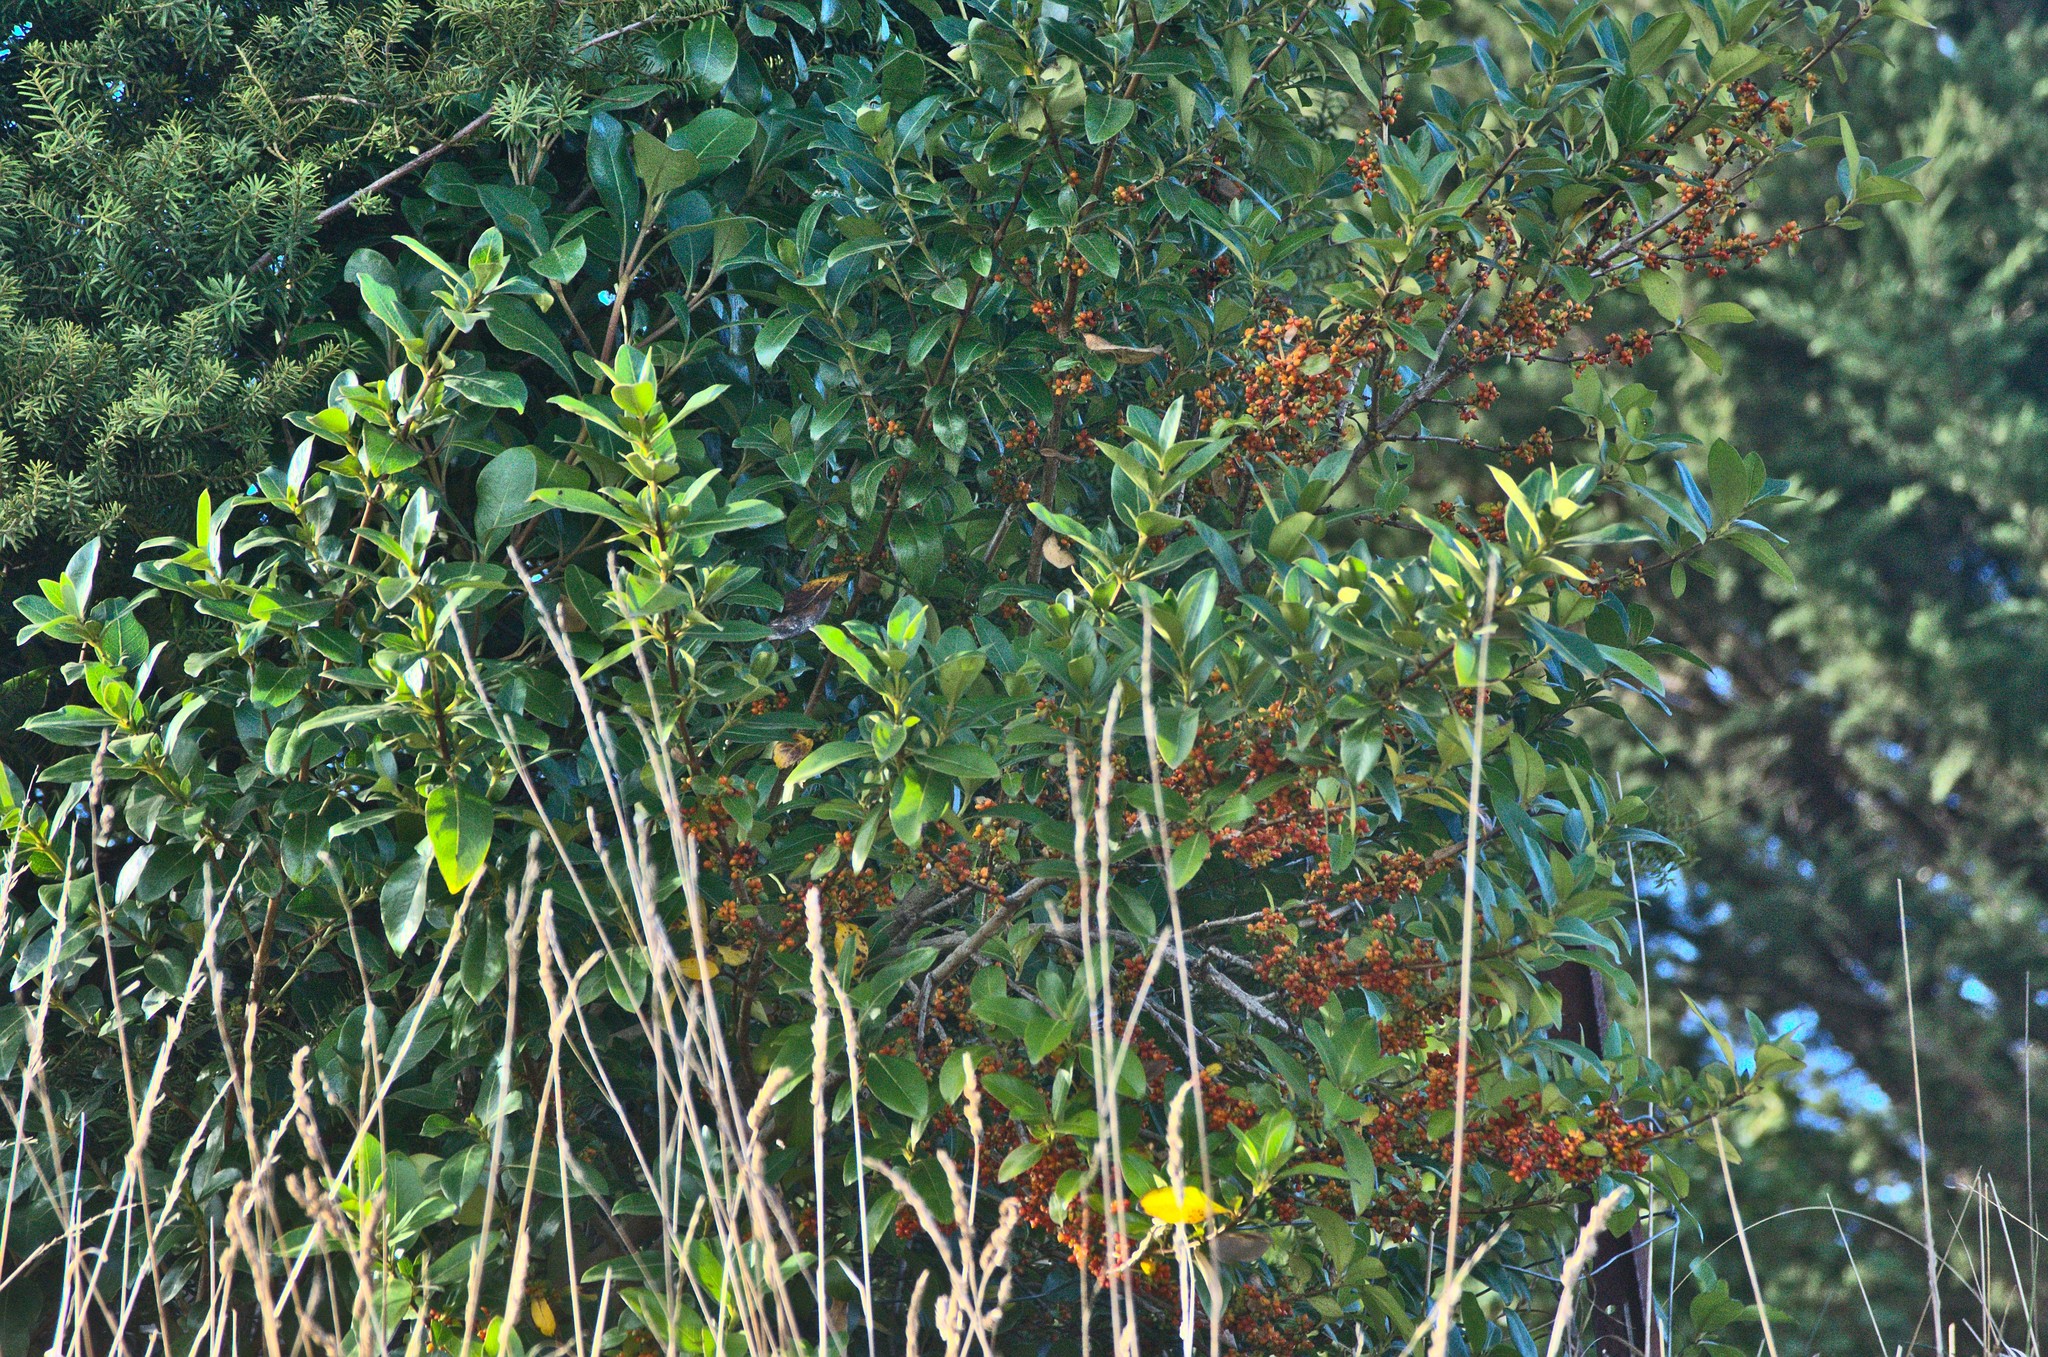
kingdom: Plantae
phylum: Tracheophyta
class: Magnoliopsida
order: Gentianales
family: Rubiaceae
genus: Coprosma
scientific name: Coprosma robusta
